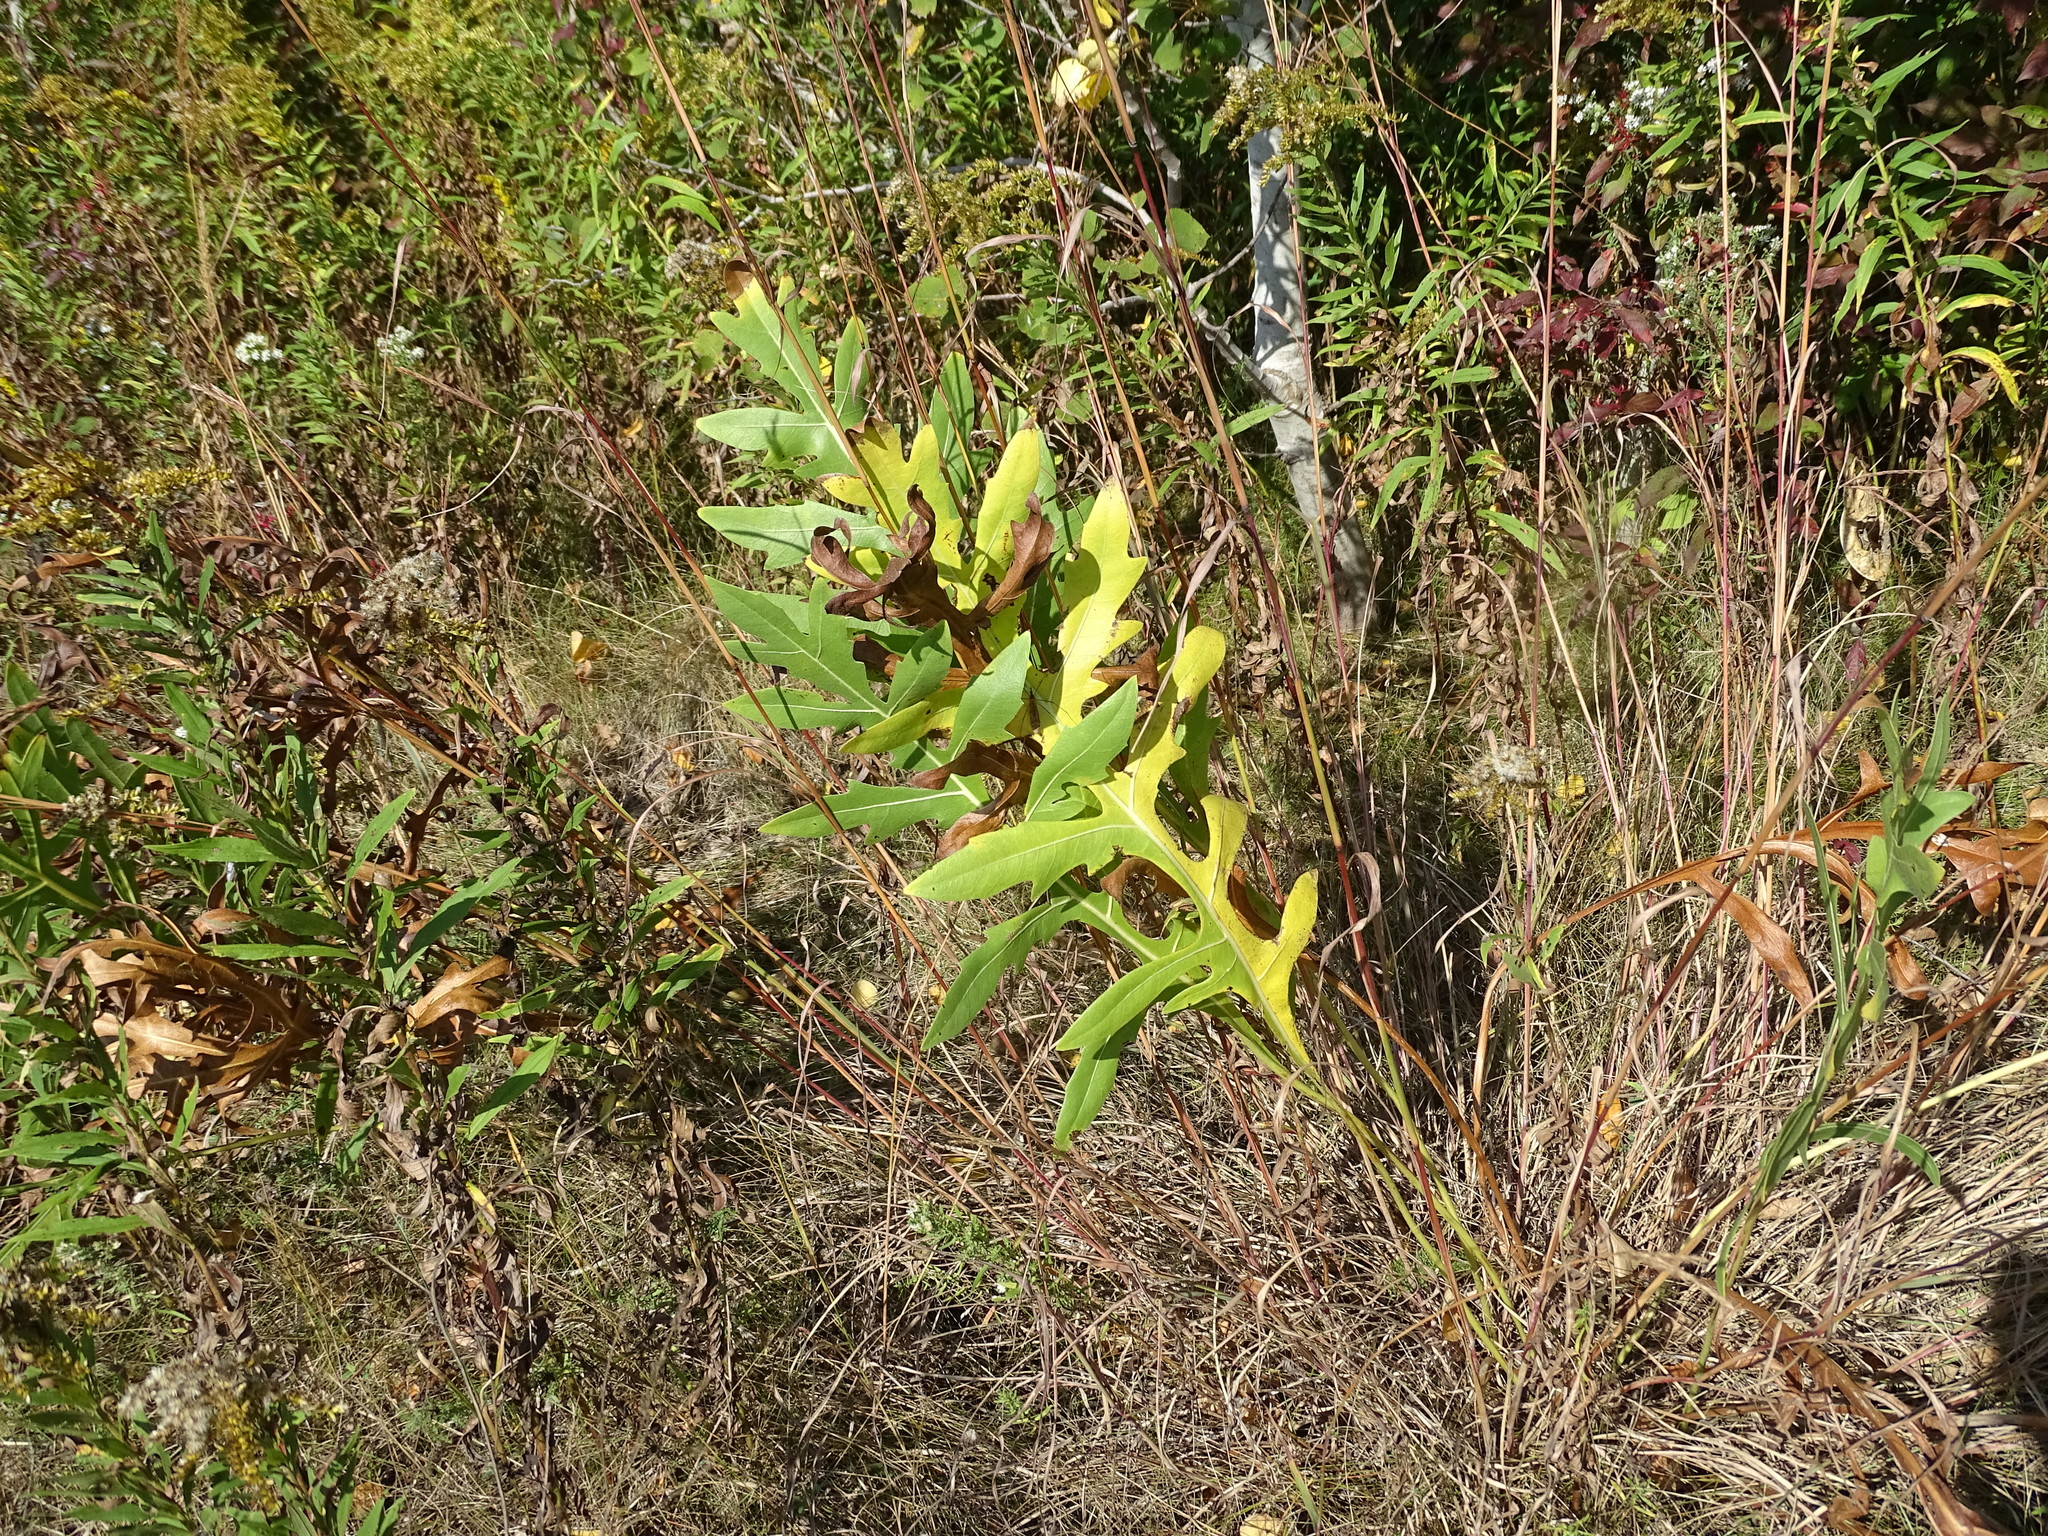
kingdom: Plantae
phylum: Tracheophyta
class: Magnoliopsida
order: Asterales
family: Asteraceae
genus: Silphium
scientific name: Silphium laciniatum
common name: Polarplant
